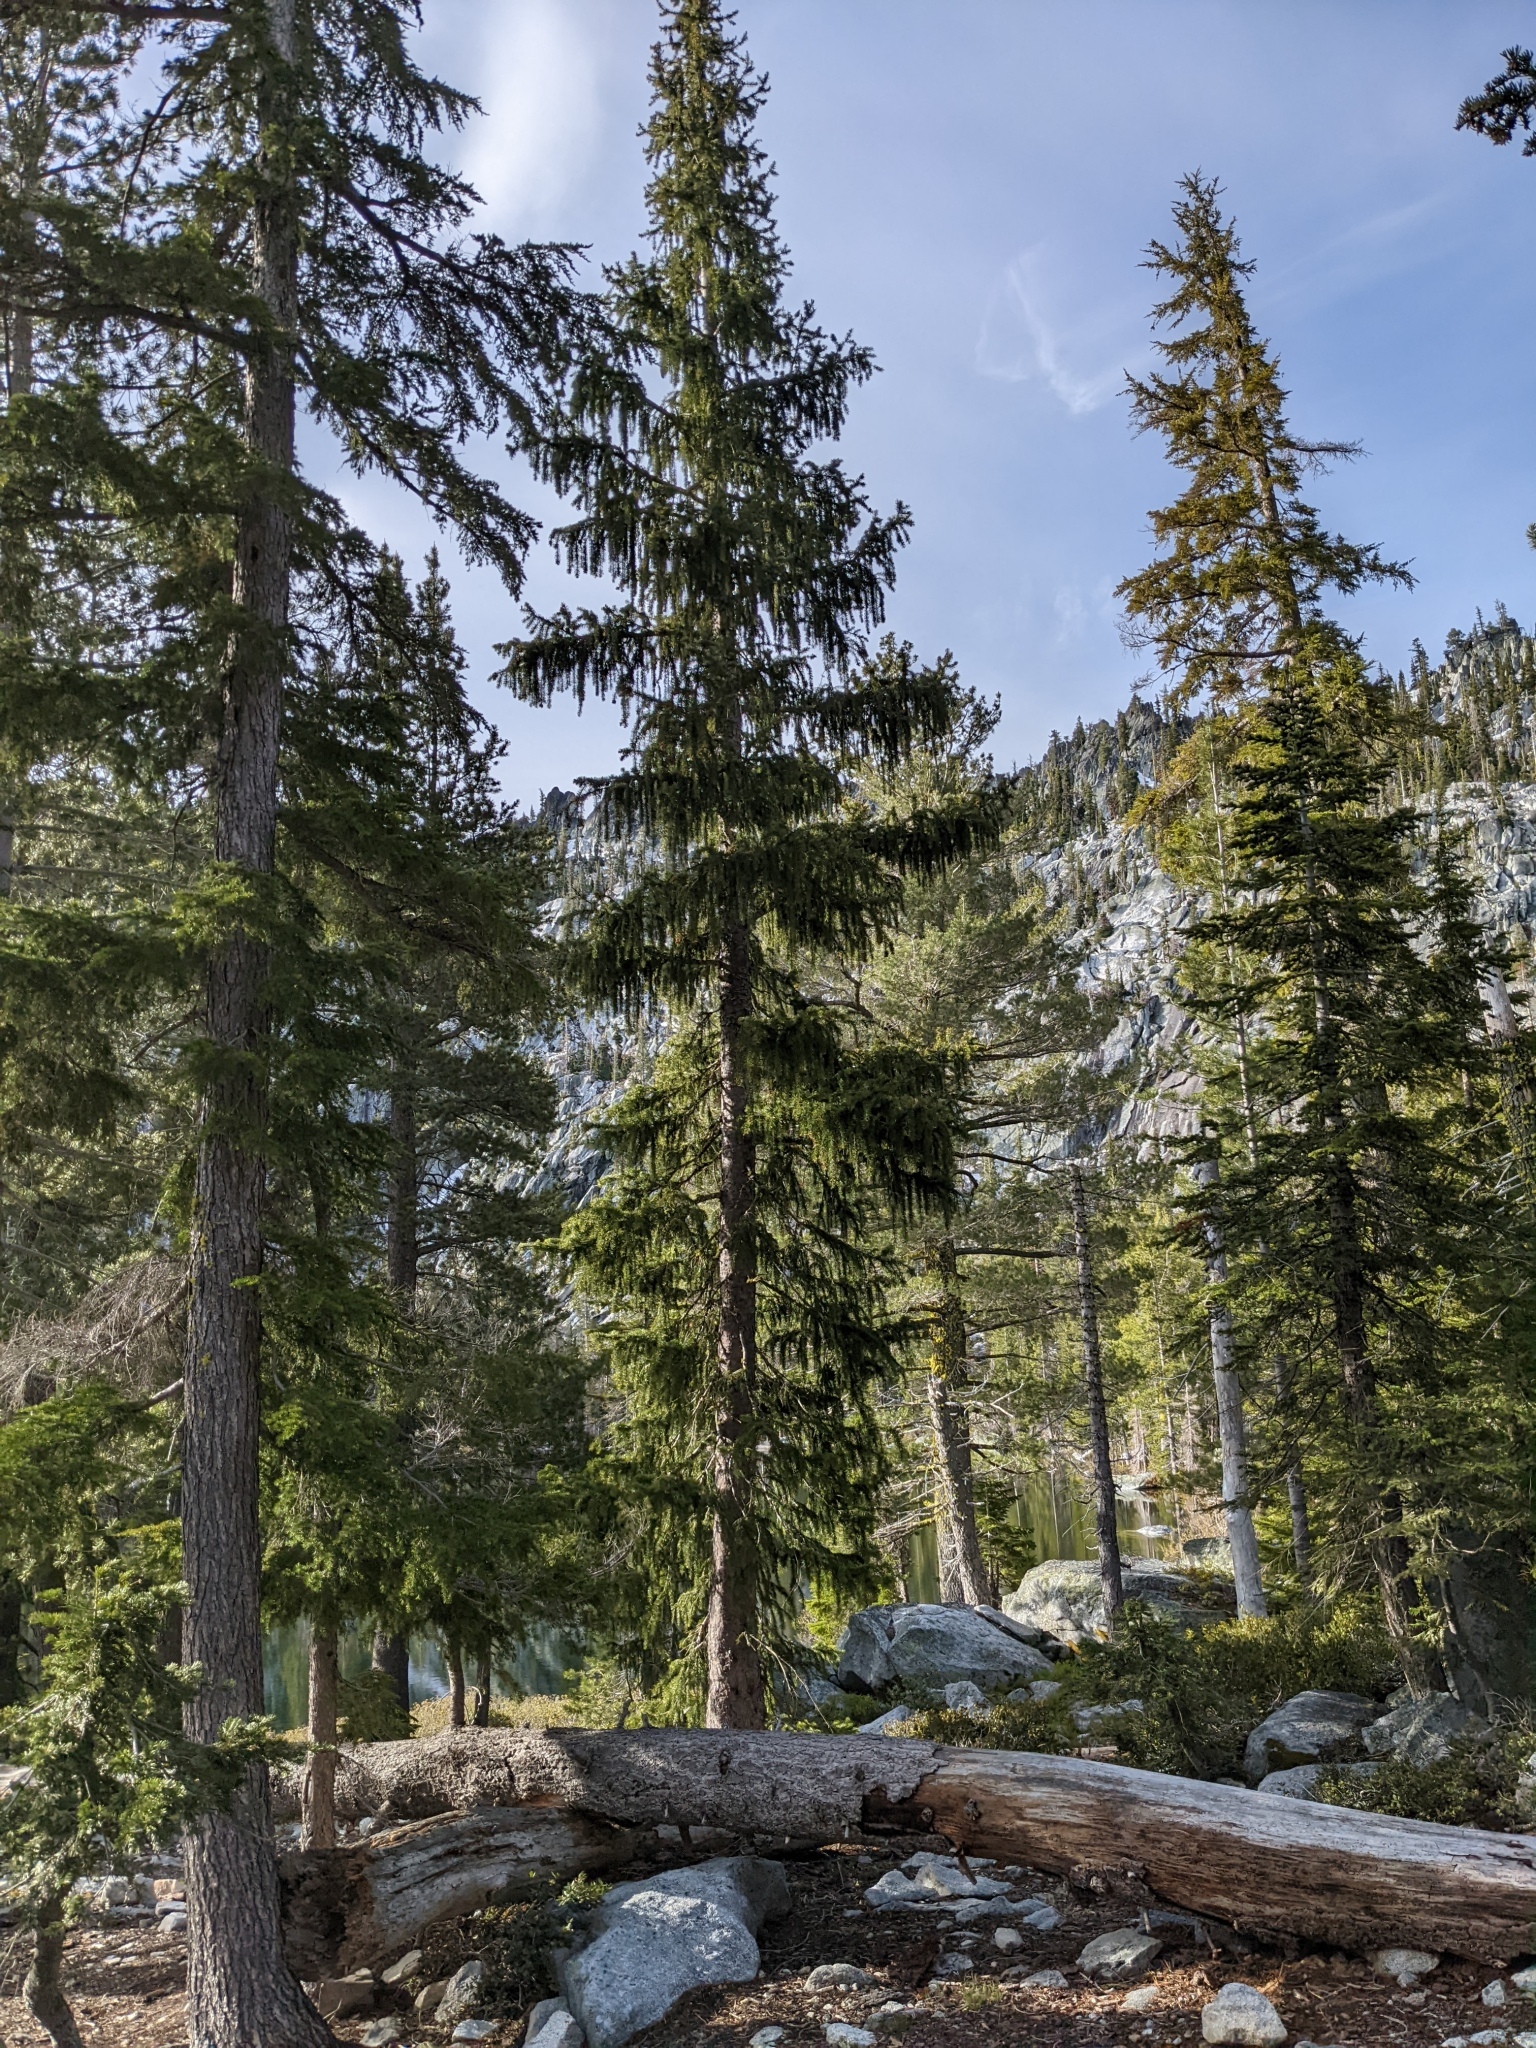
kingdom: Plantae
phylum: Tracheophyta
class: Pinopsida
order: Pinales
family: Pinaceae
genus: Picea
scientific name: Picea breweriana
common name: Brewer's spruce
